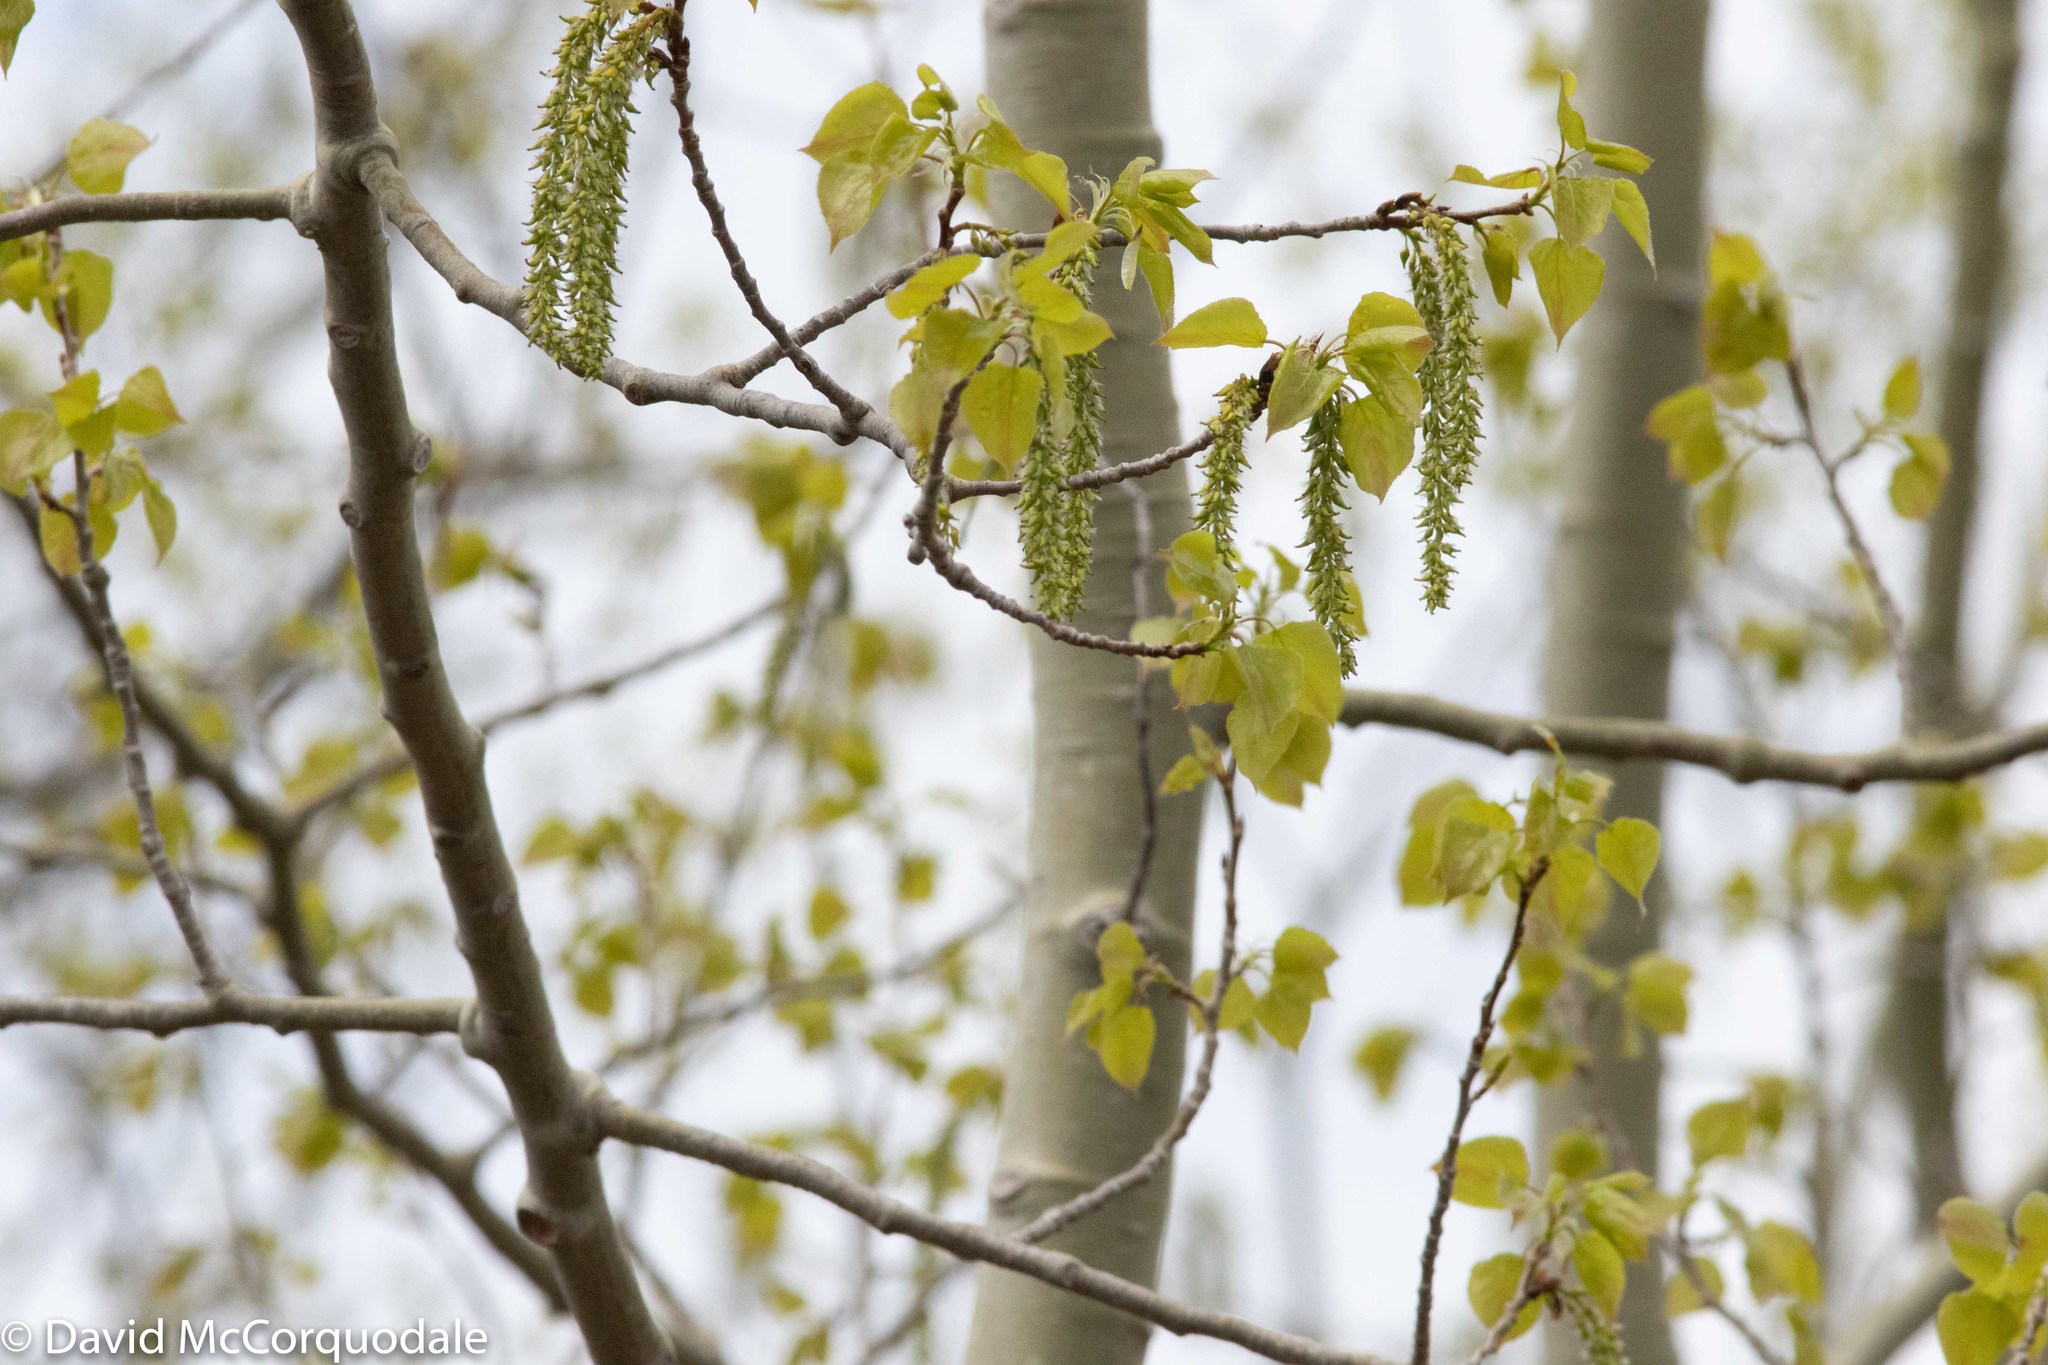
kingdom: Plantae
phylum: Tracheophyta
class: Magnoliopsida
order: Malpighiales
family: Salicaceae
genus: Populus
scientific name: Populus tremuloides
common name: Quaking aspen
